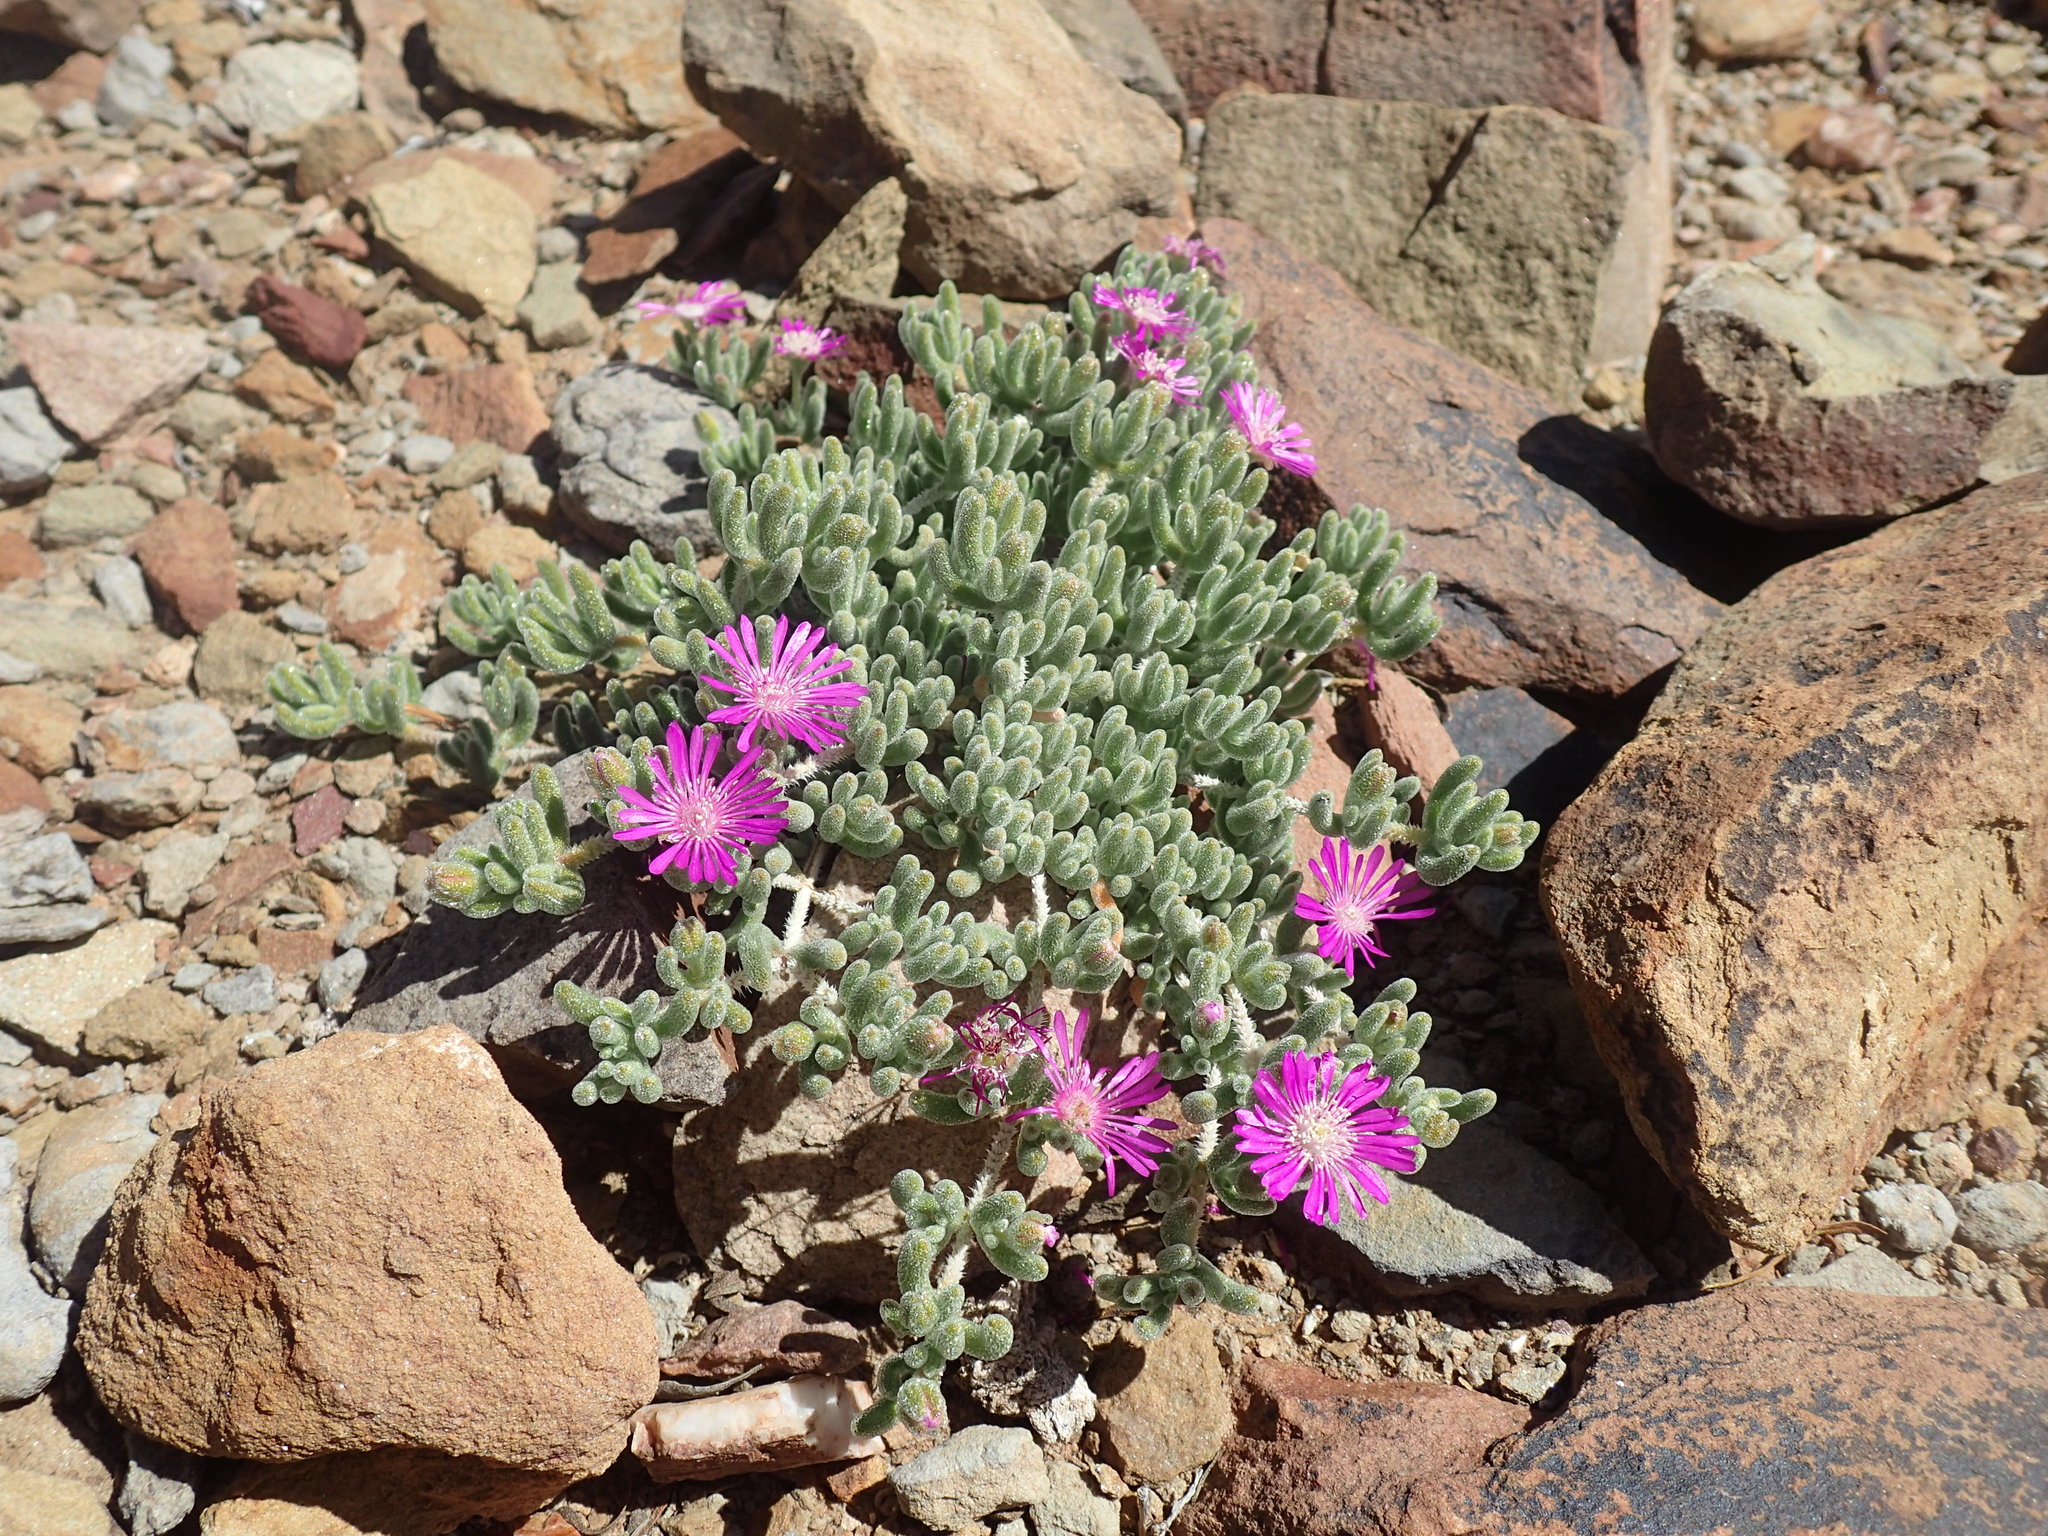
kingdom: Plantae
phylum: Tracheophyta
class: Magnoliopsida
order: Caryophyllales
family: Aizoaceae
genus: Drosanthemum
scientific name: Drosanthemum hispidum
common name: Hairy dewflower
